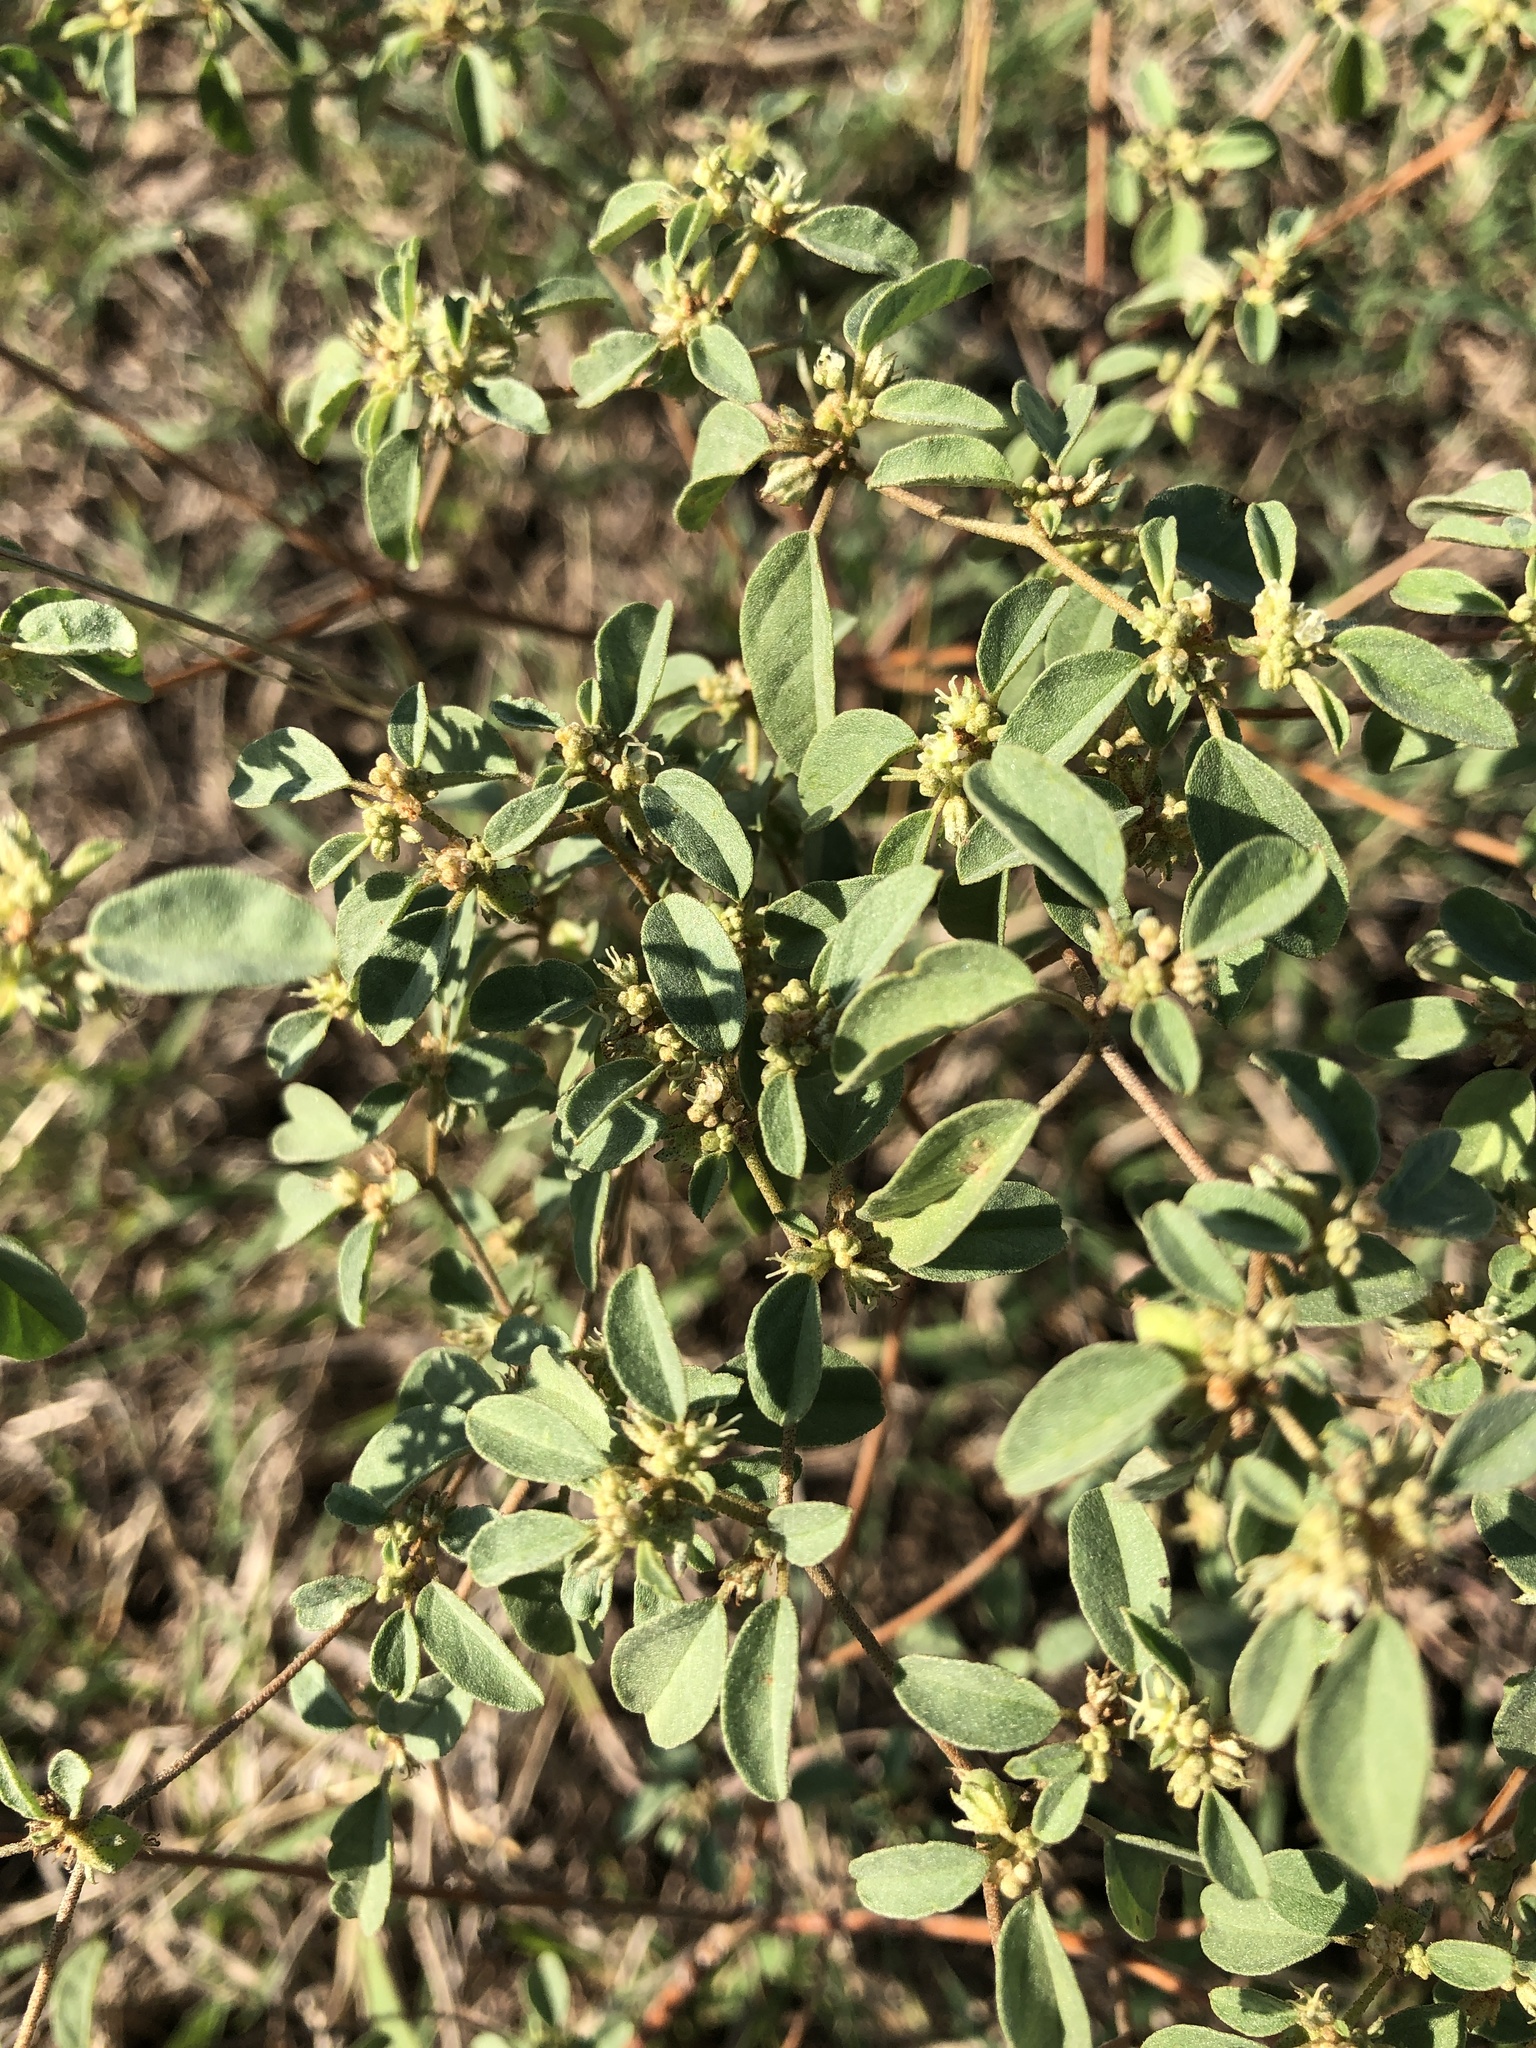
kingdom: Plantae
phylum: Tracheophyta
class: Magnoliopsida
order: Malpighiales
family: Euphorbiaceae
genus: Croton
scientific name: Croton monanthogynus
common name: One-seed croton
